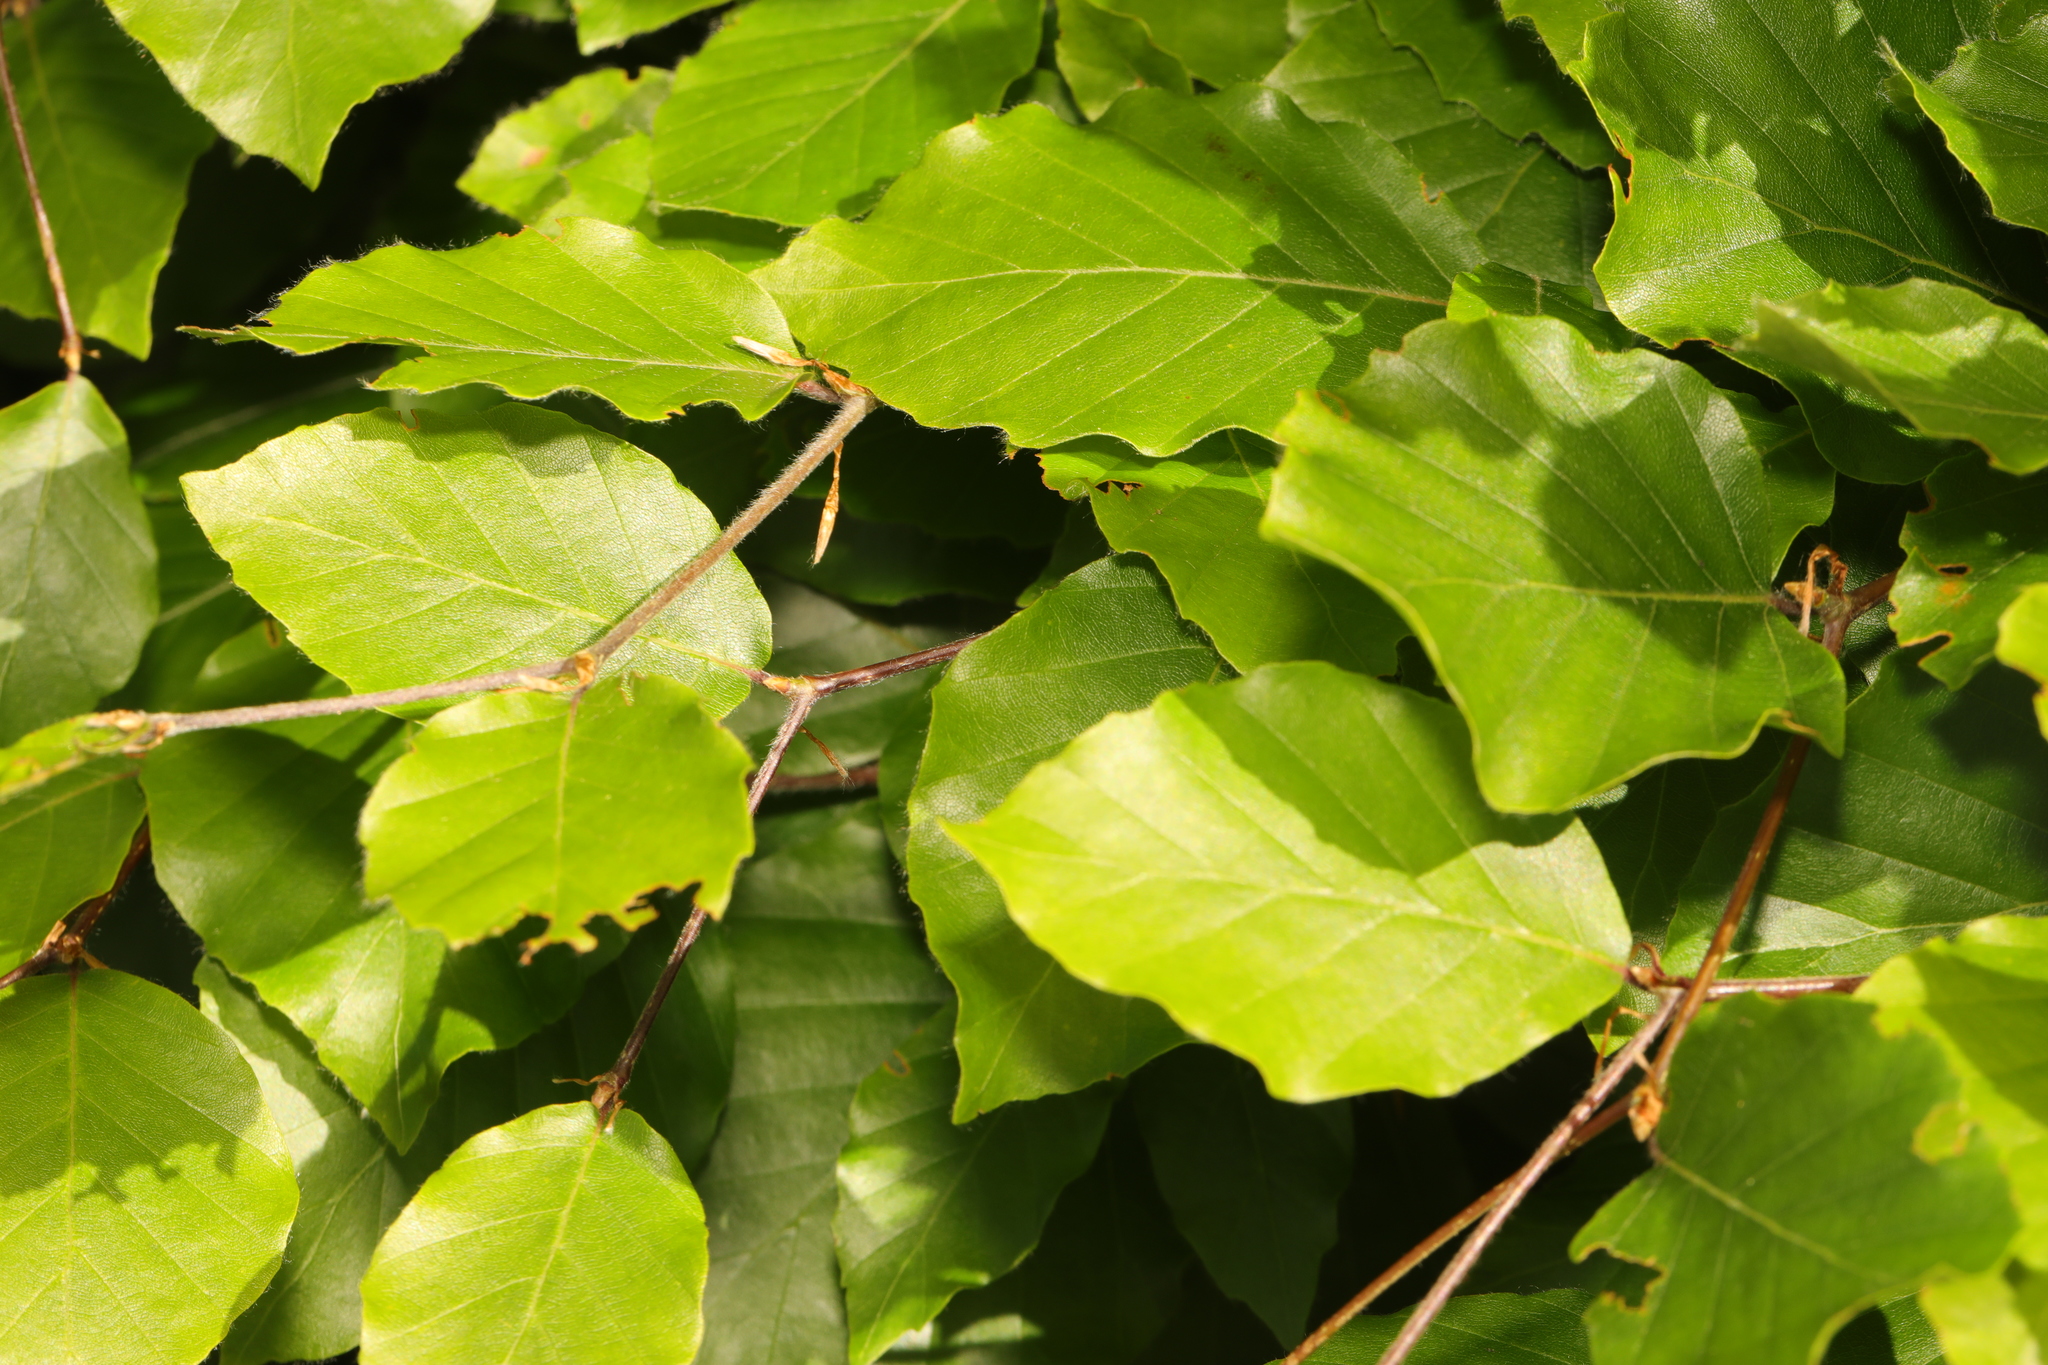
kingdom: Plantae
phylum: Tracheophyta
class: Magnoliopsida
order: Fagales
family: Fagaceae
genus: Fagus
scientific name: Fagus sylvatica
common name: Beech
